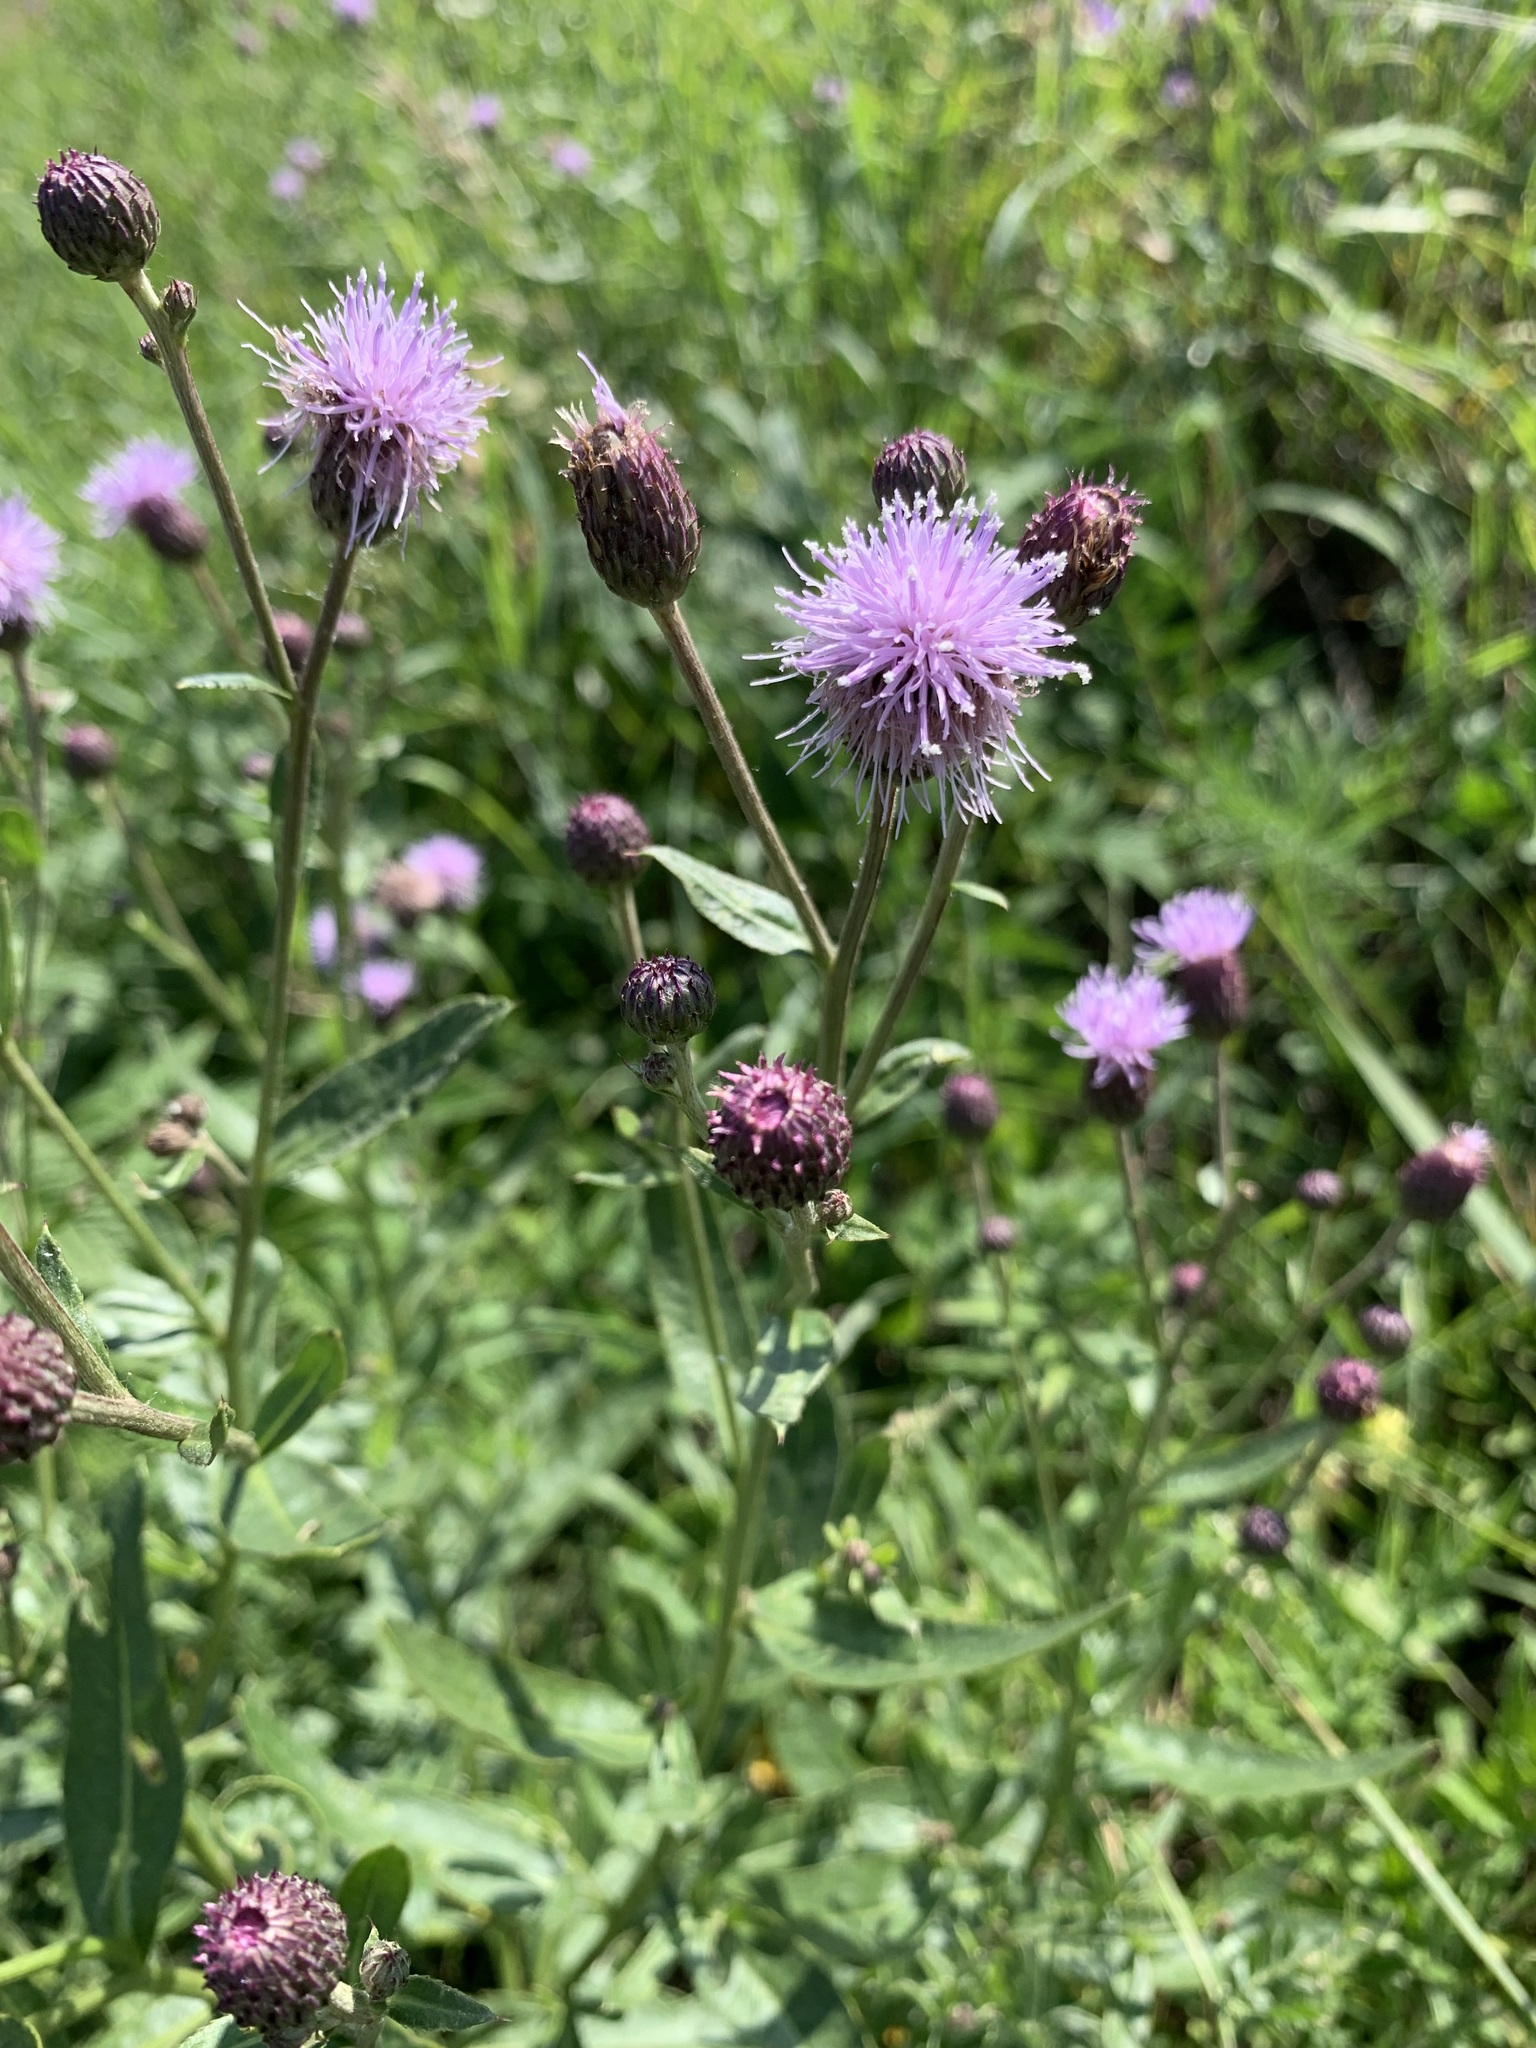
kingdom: Plantae
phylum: Tracheophyta
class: Magnoliopsida
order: Asterales
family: Asteraceae
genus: Cirsium
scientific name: Cirsium arvense
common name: Creeping thistle
